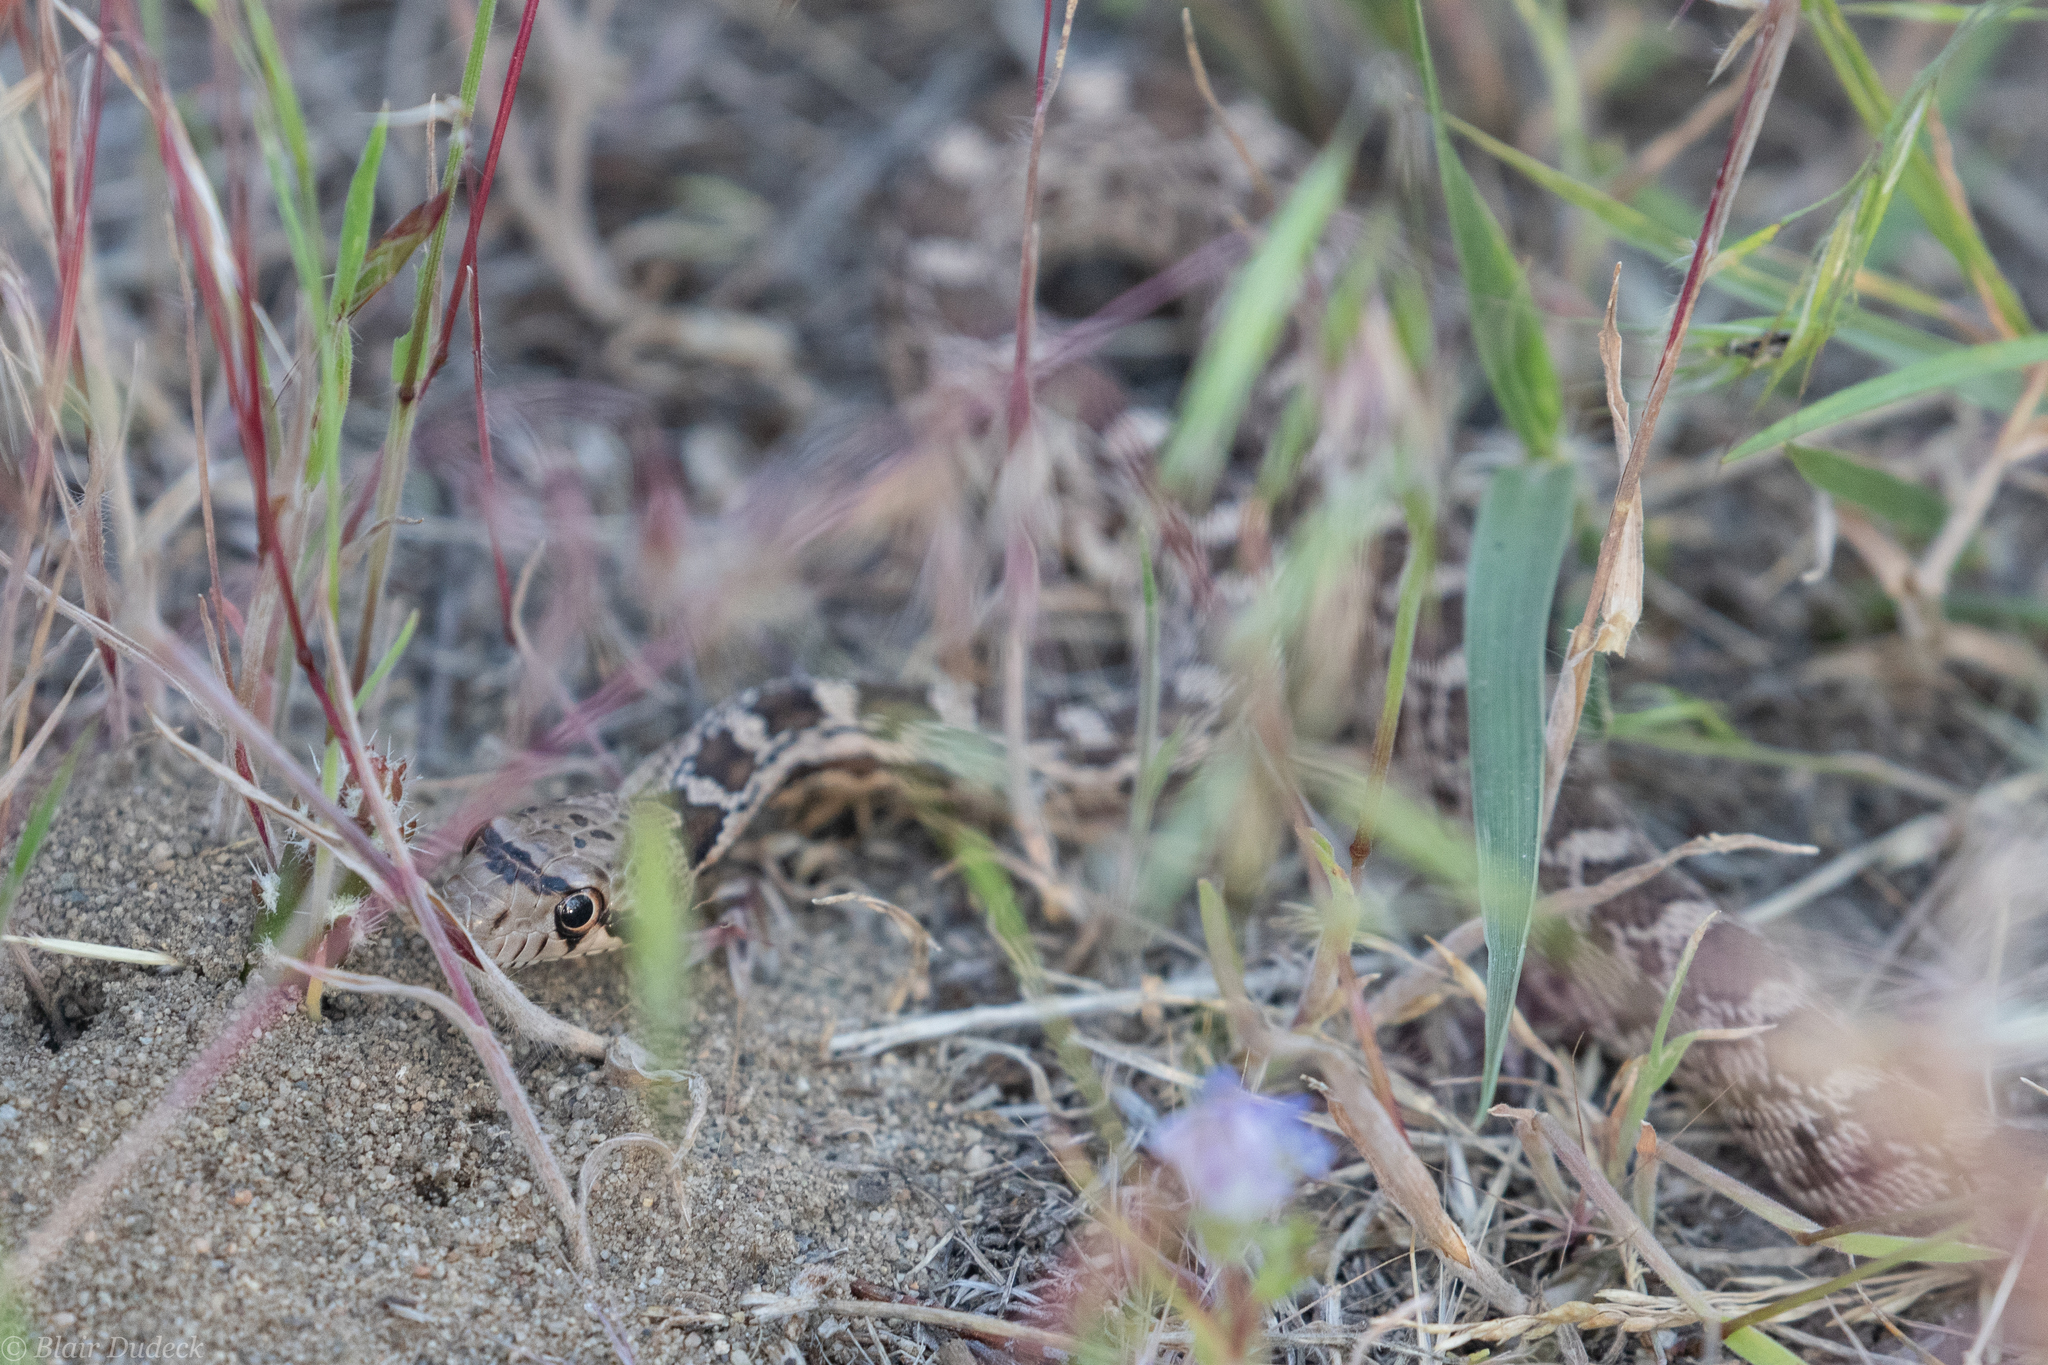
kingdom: Animalia
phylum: Chordata
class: Squamata
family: Colubridae
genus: Pituophis
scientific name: Pituophis catenifer
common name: Gopher snake
